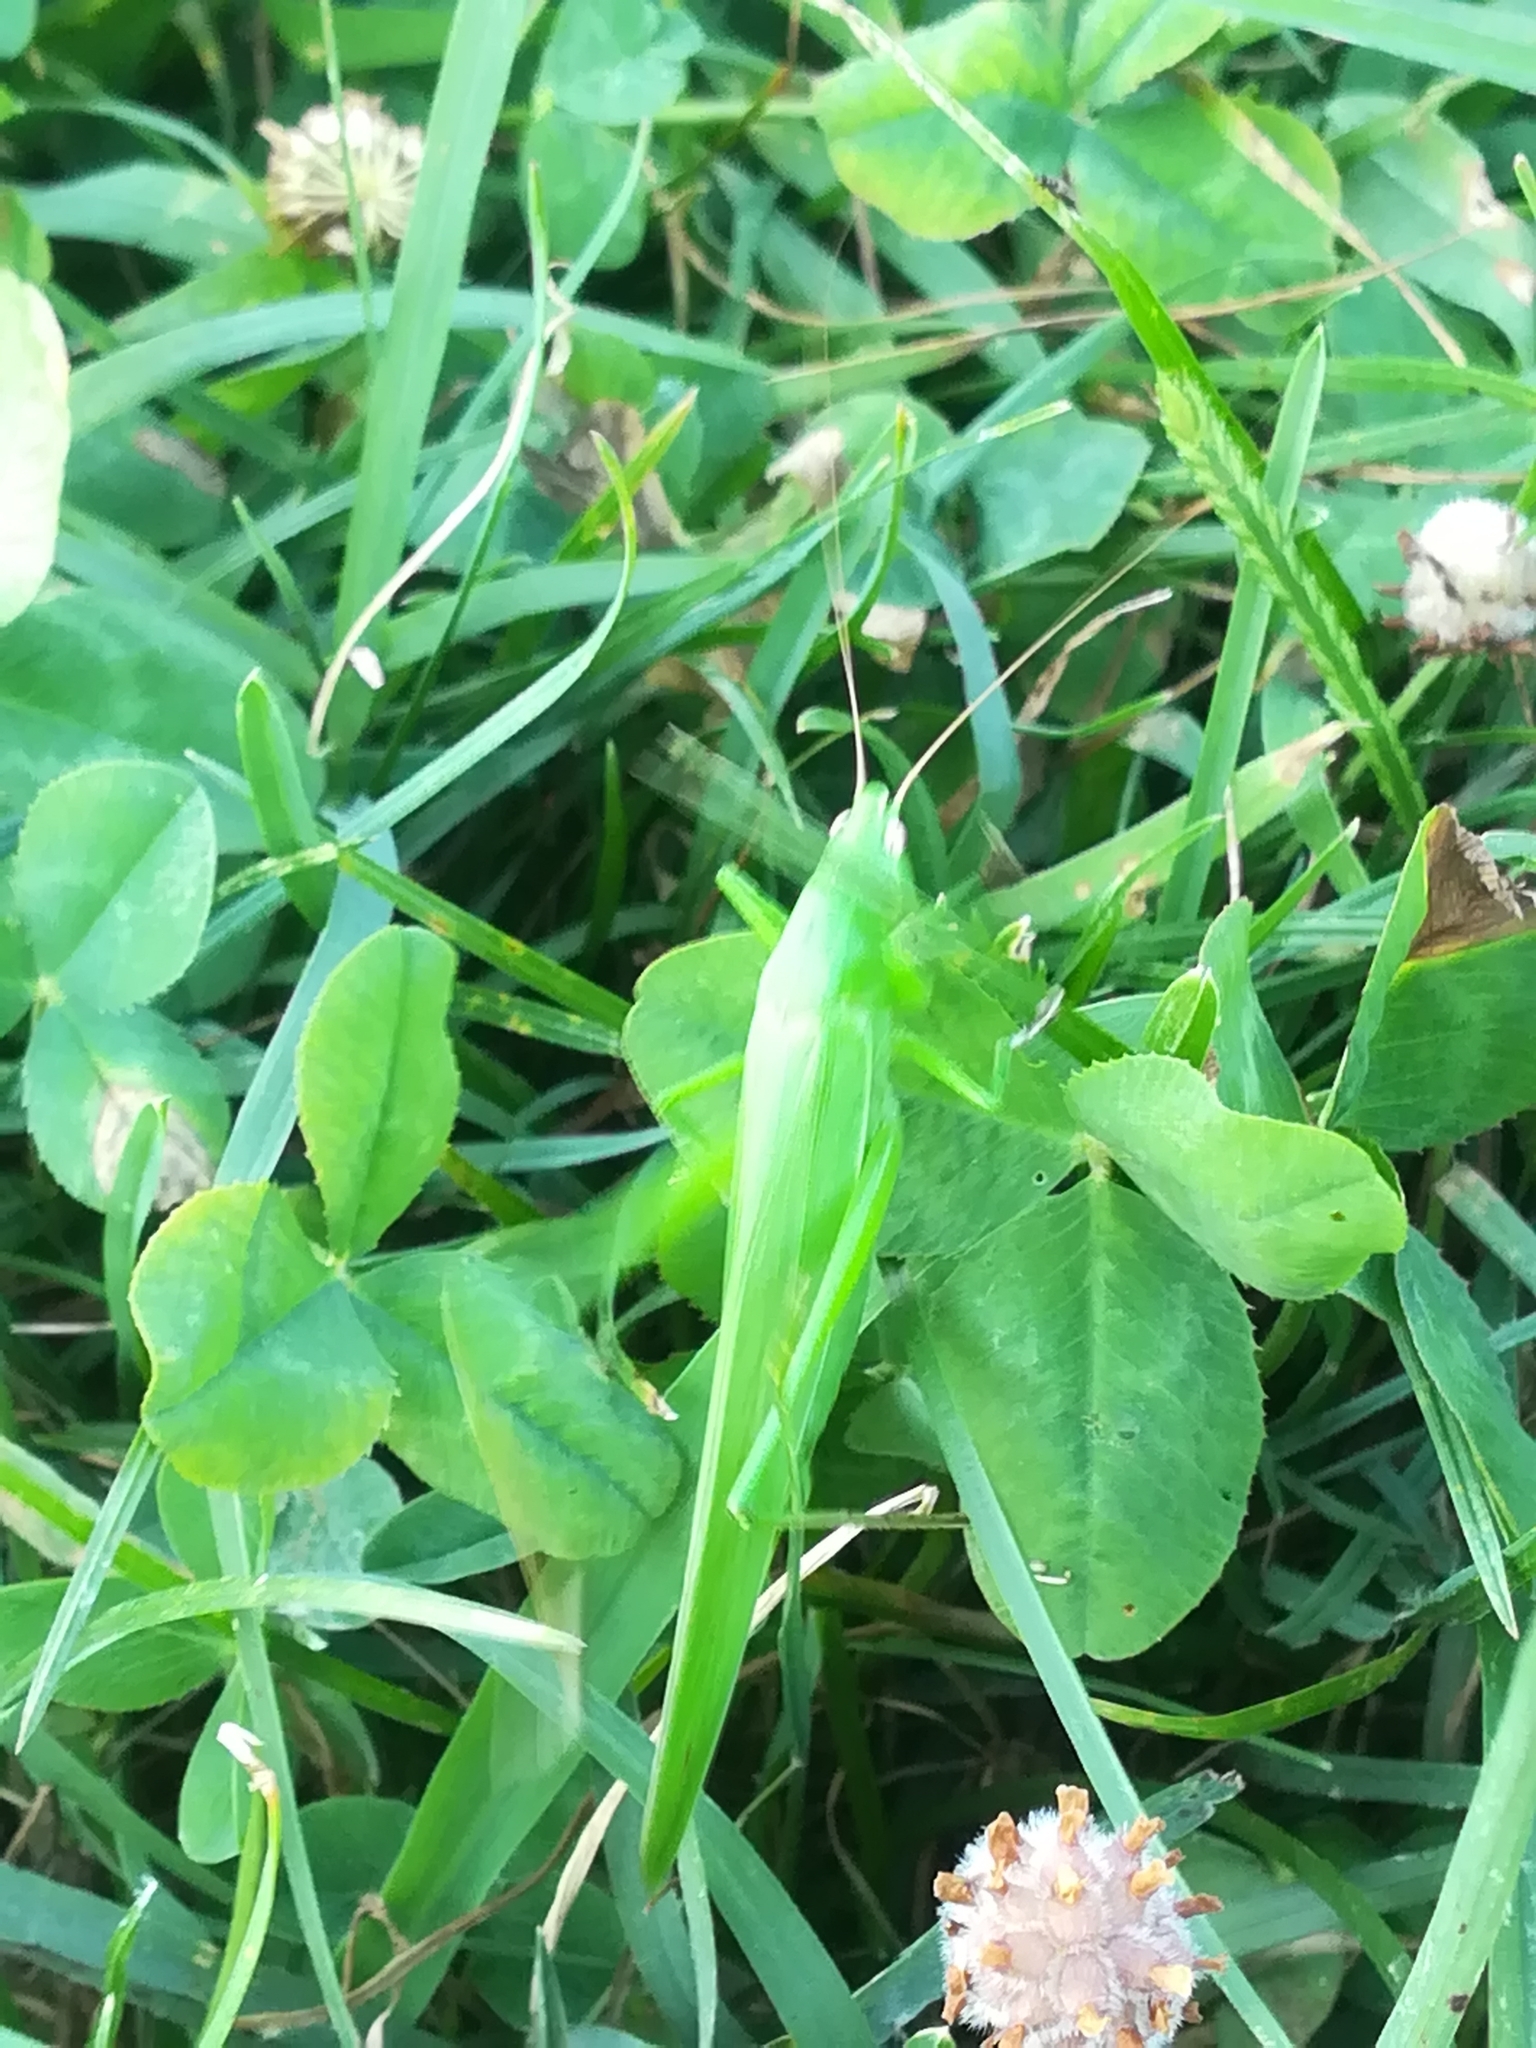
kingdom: Animalia
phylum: Arthropoda
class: Insecta
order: Orthoptera
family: Tettigoniidae
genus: Ruspolia
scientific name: Ruspolia nitidula
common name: Large conehead
